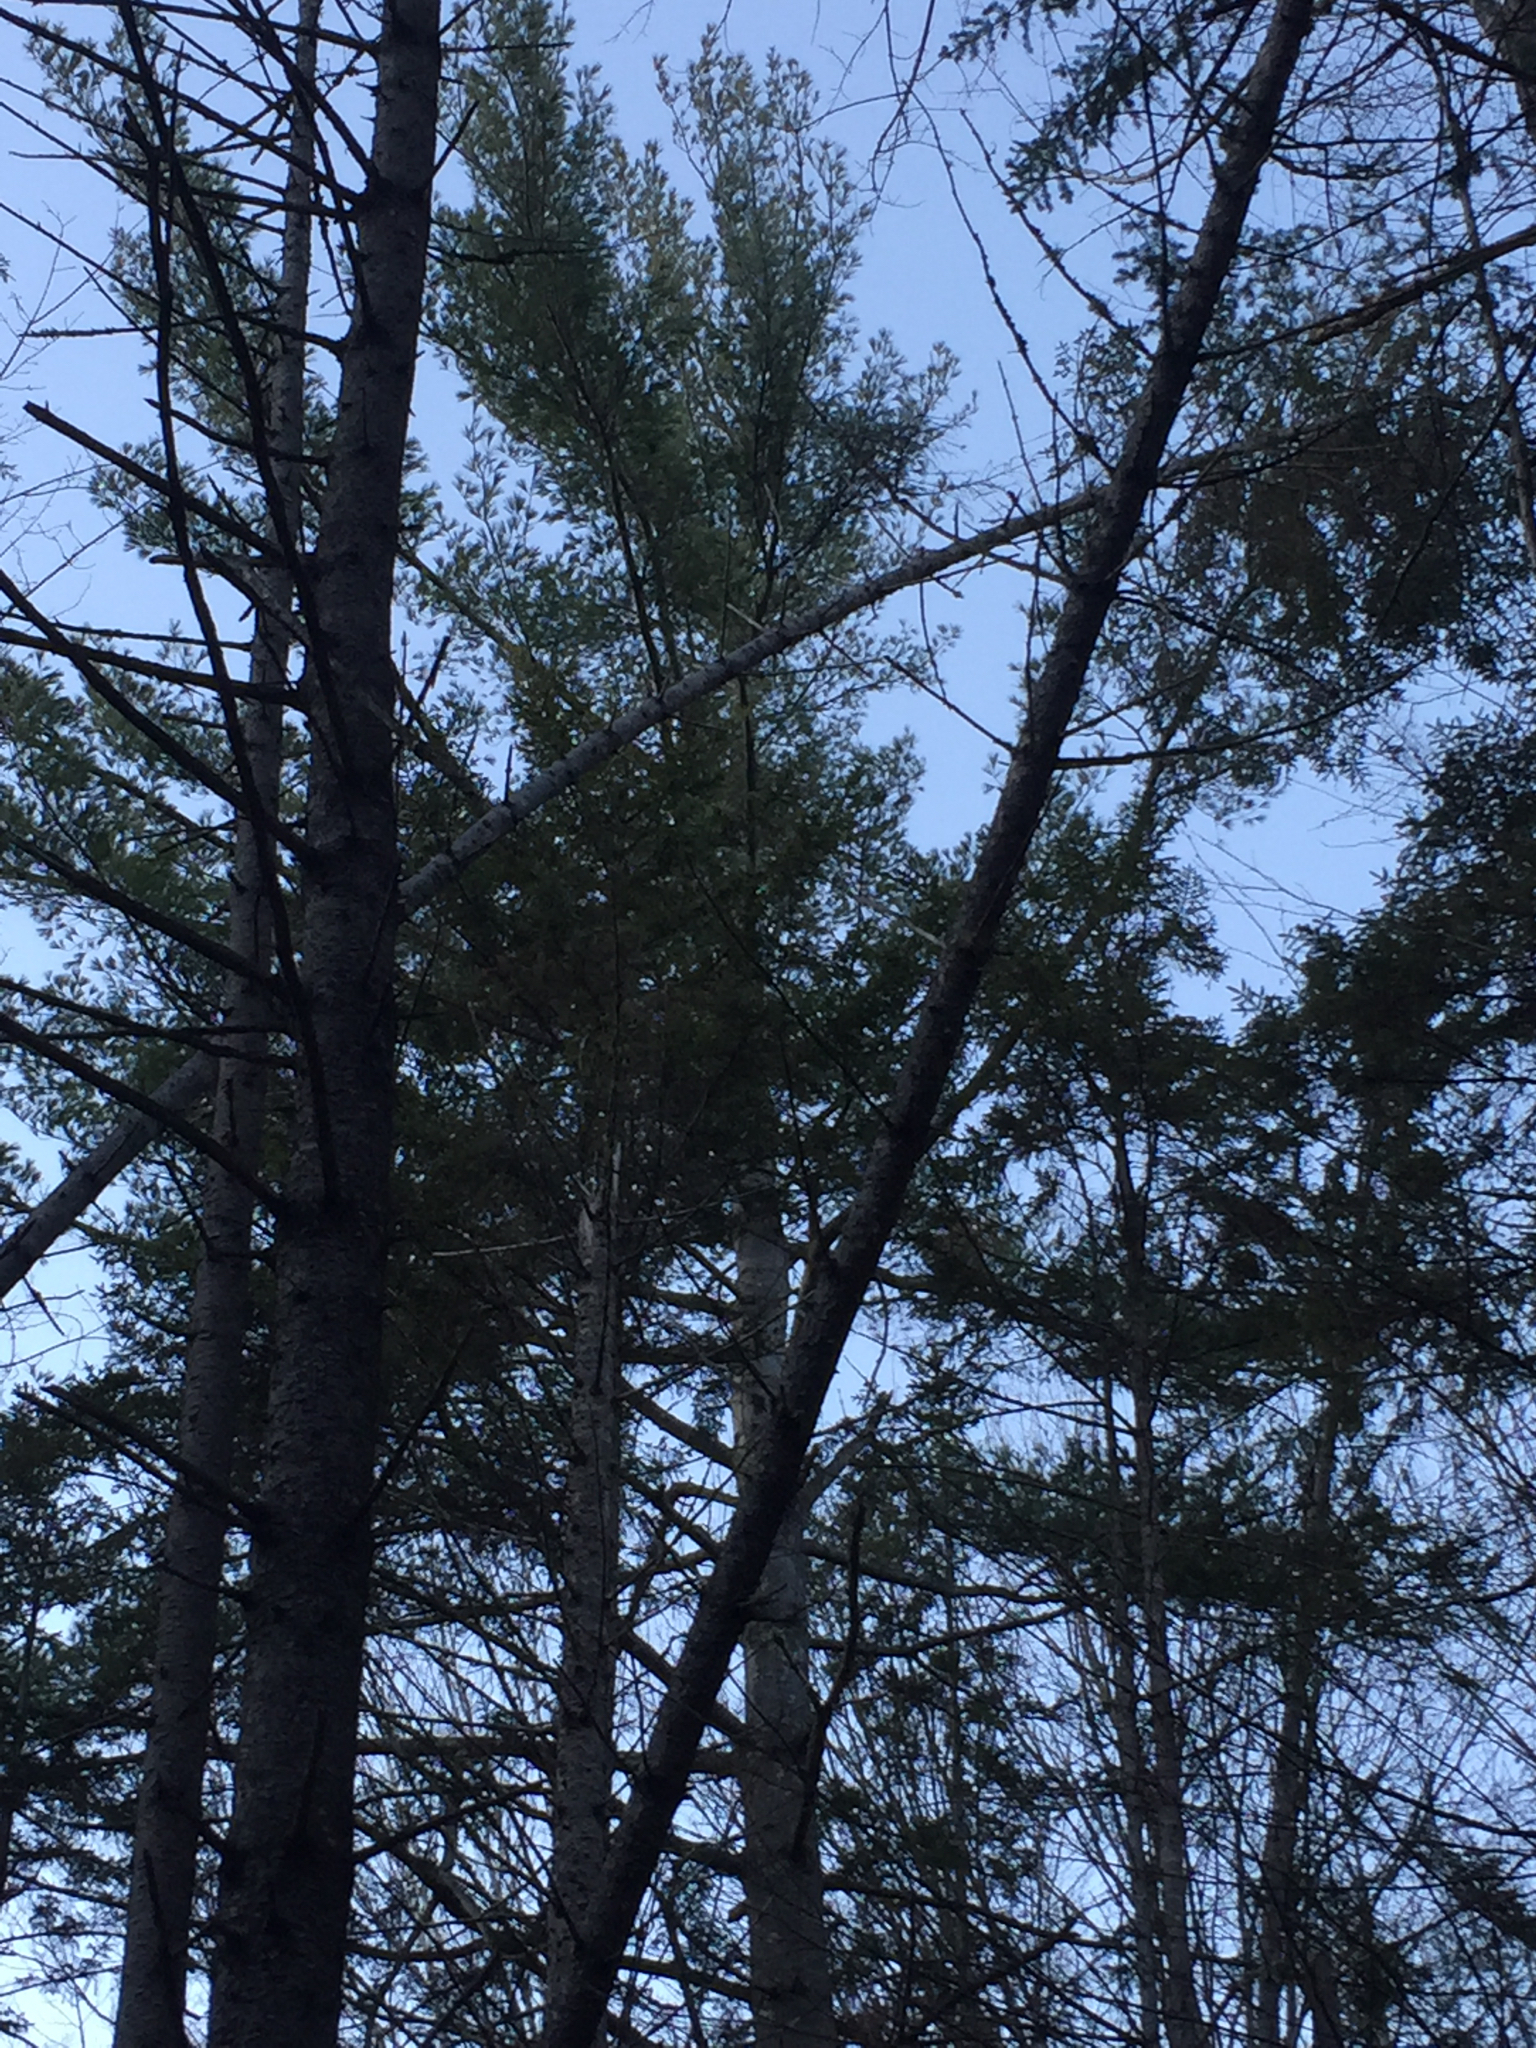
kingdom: Plantae
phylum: Tracheophyta
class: Pinopsida
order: Pinales
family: Pinaceae
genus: Pinus
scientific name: Pinus strobus
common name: Weymouth pine
